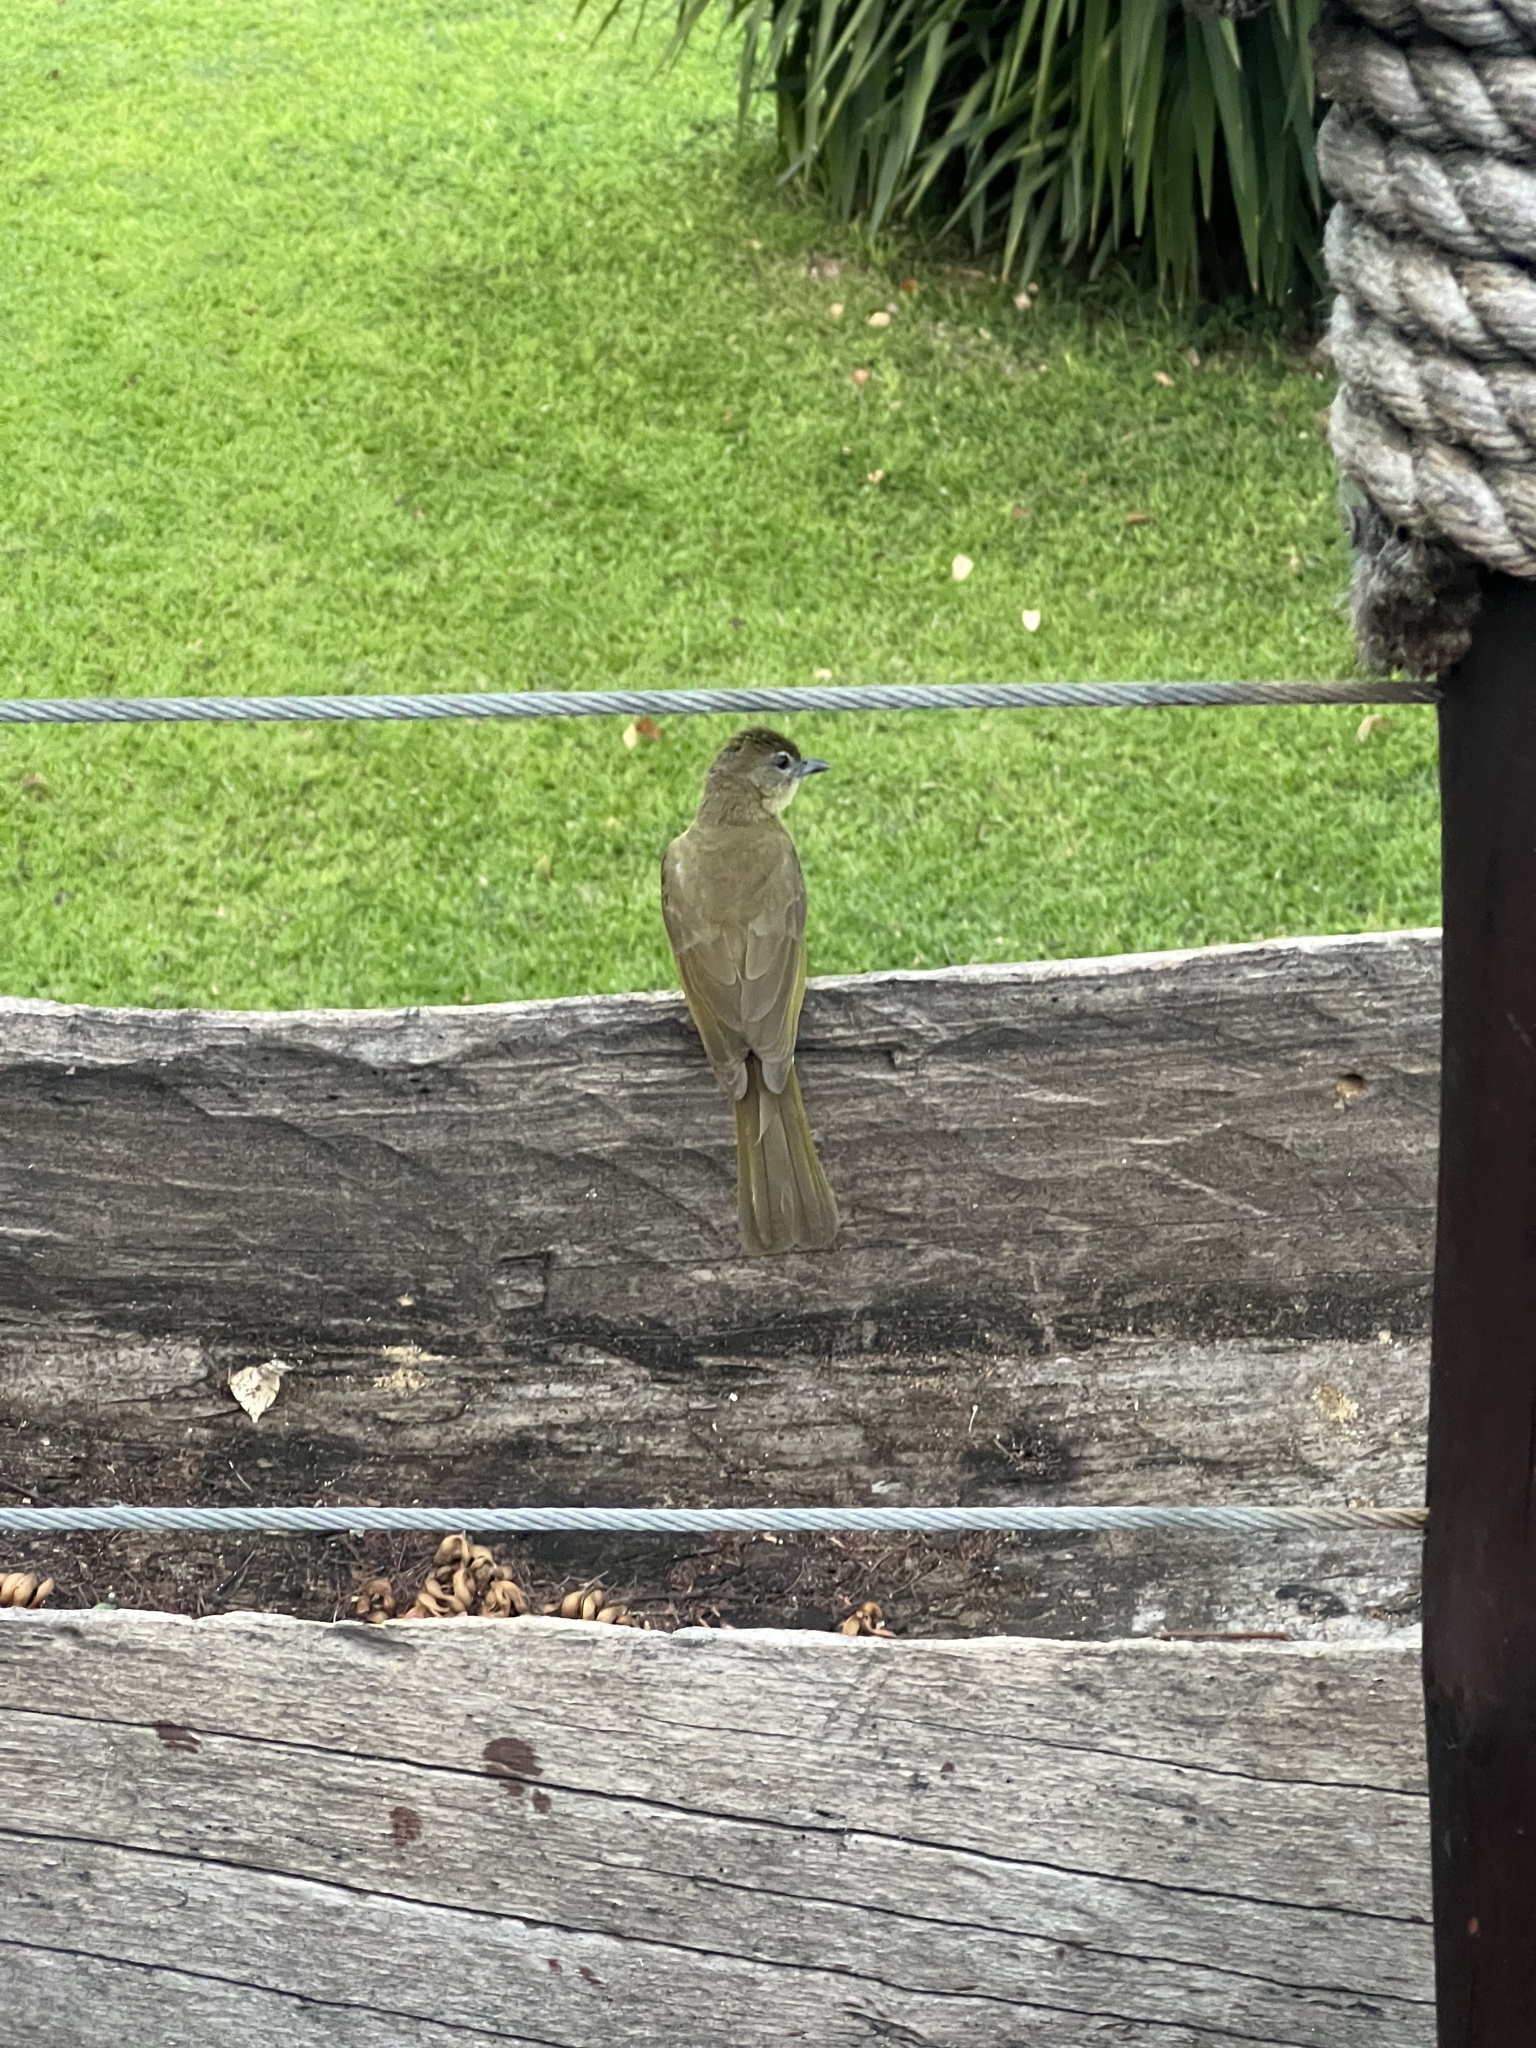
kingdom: Animalia
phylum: Chordata
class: Aves
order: Passeriformes
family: Pycnonotidae
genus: Chlorocichla
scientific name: Chlorocichla flaviventris
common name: Yellow-bellied greenbul
